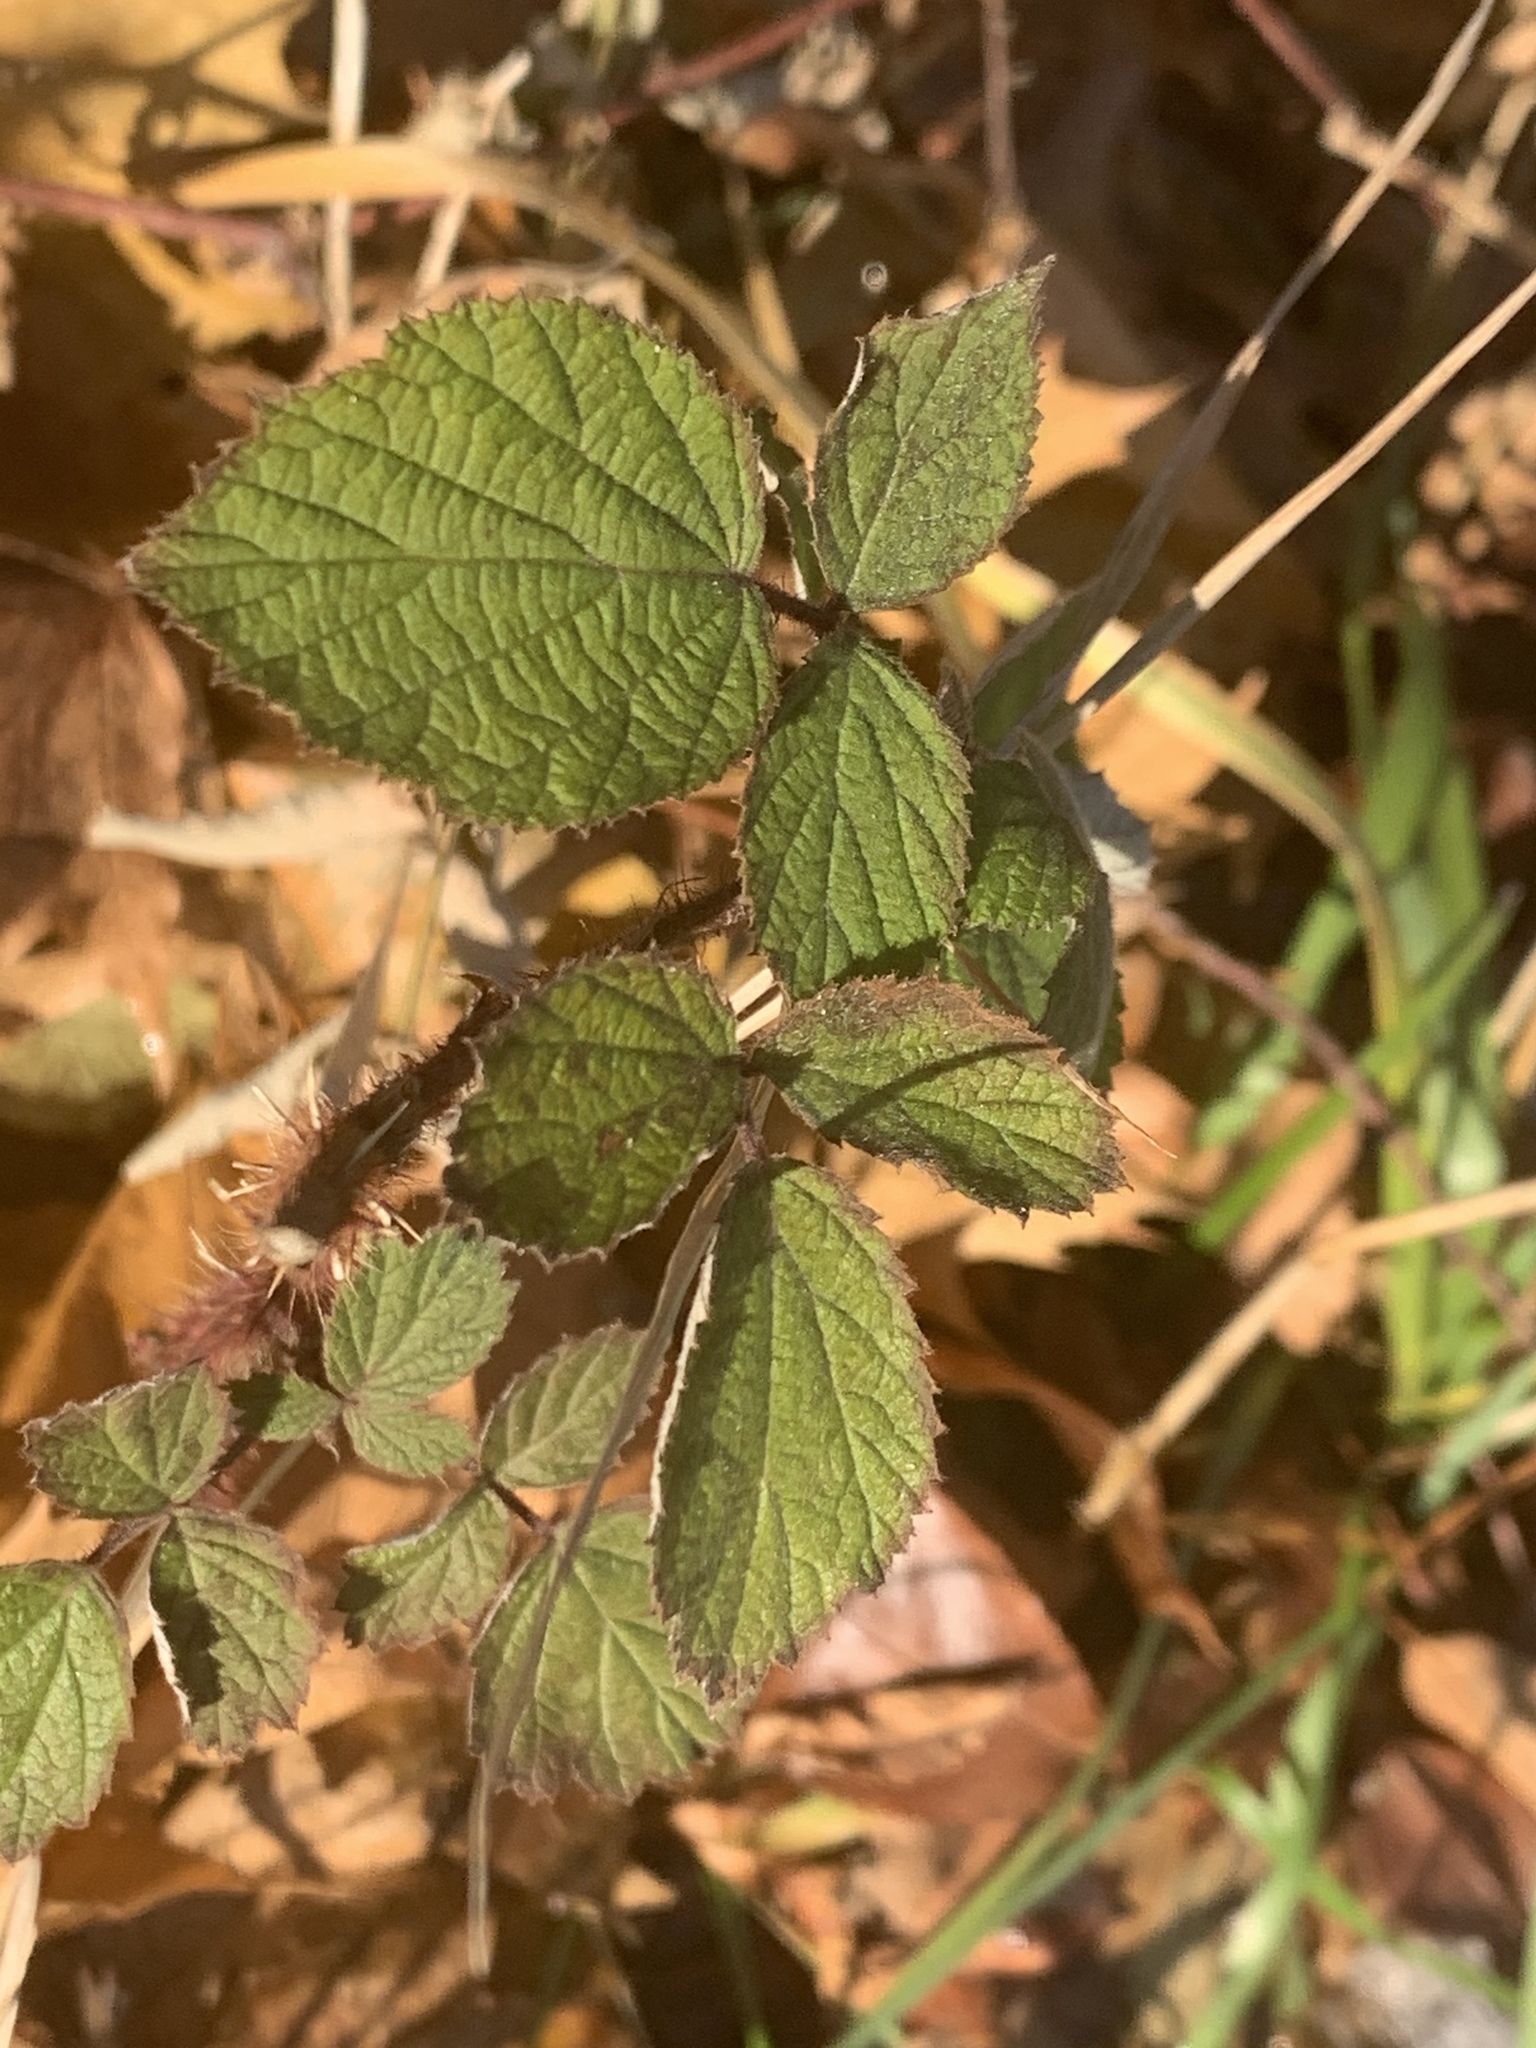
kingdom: Plantae
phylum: Tracheophyta
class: Magnoliopsida
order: Rosales
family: Rosaceae
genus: Rubus
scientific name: Rubus phoenicolasius
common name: Japanese wineberry
